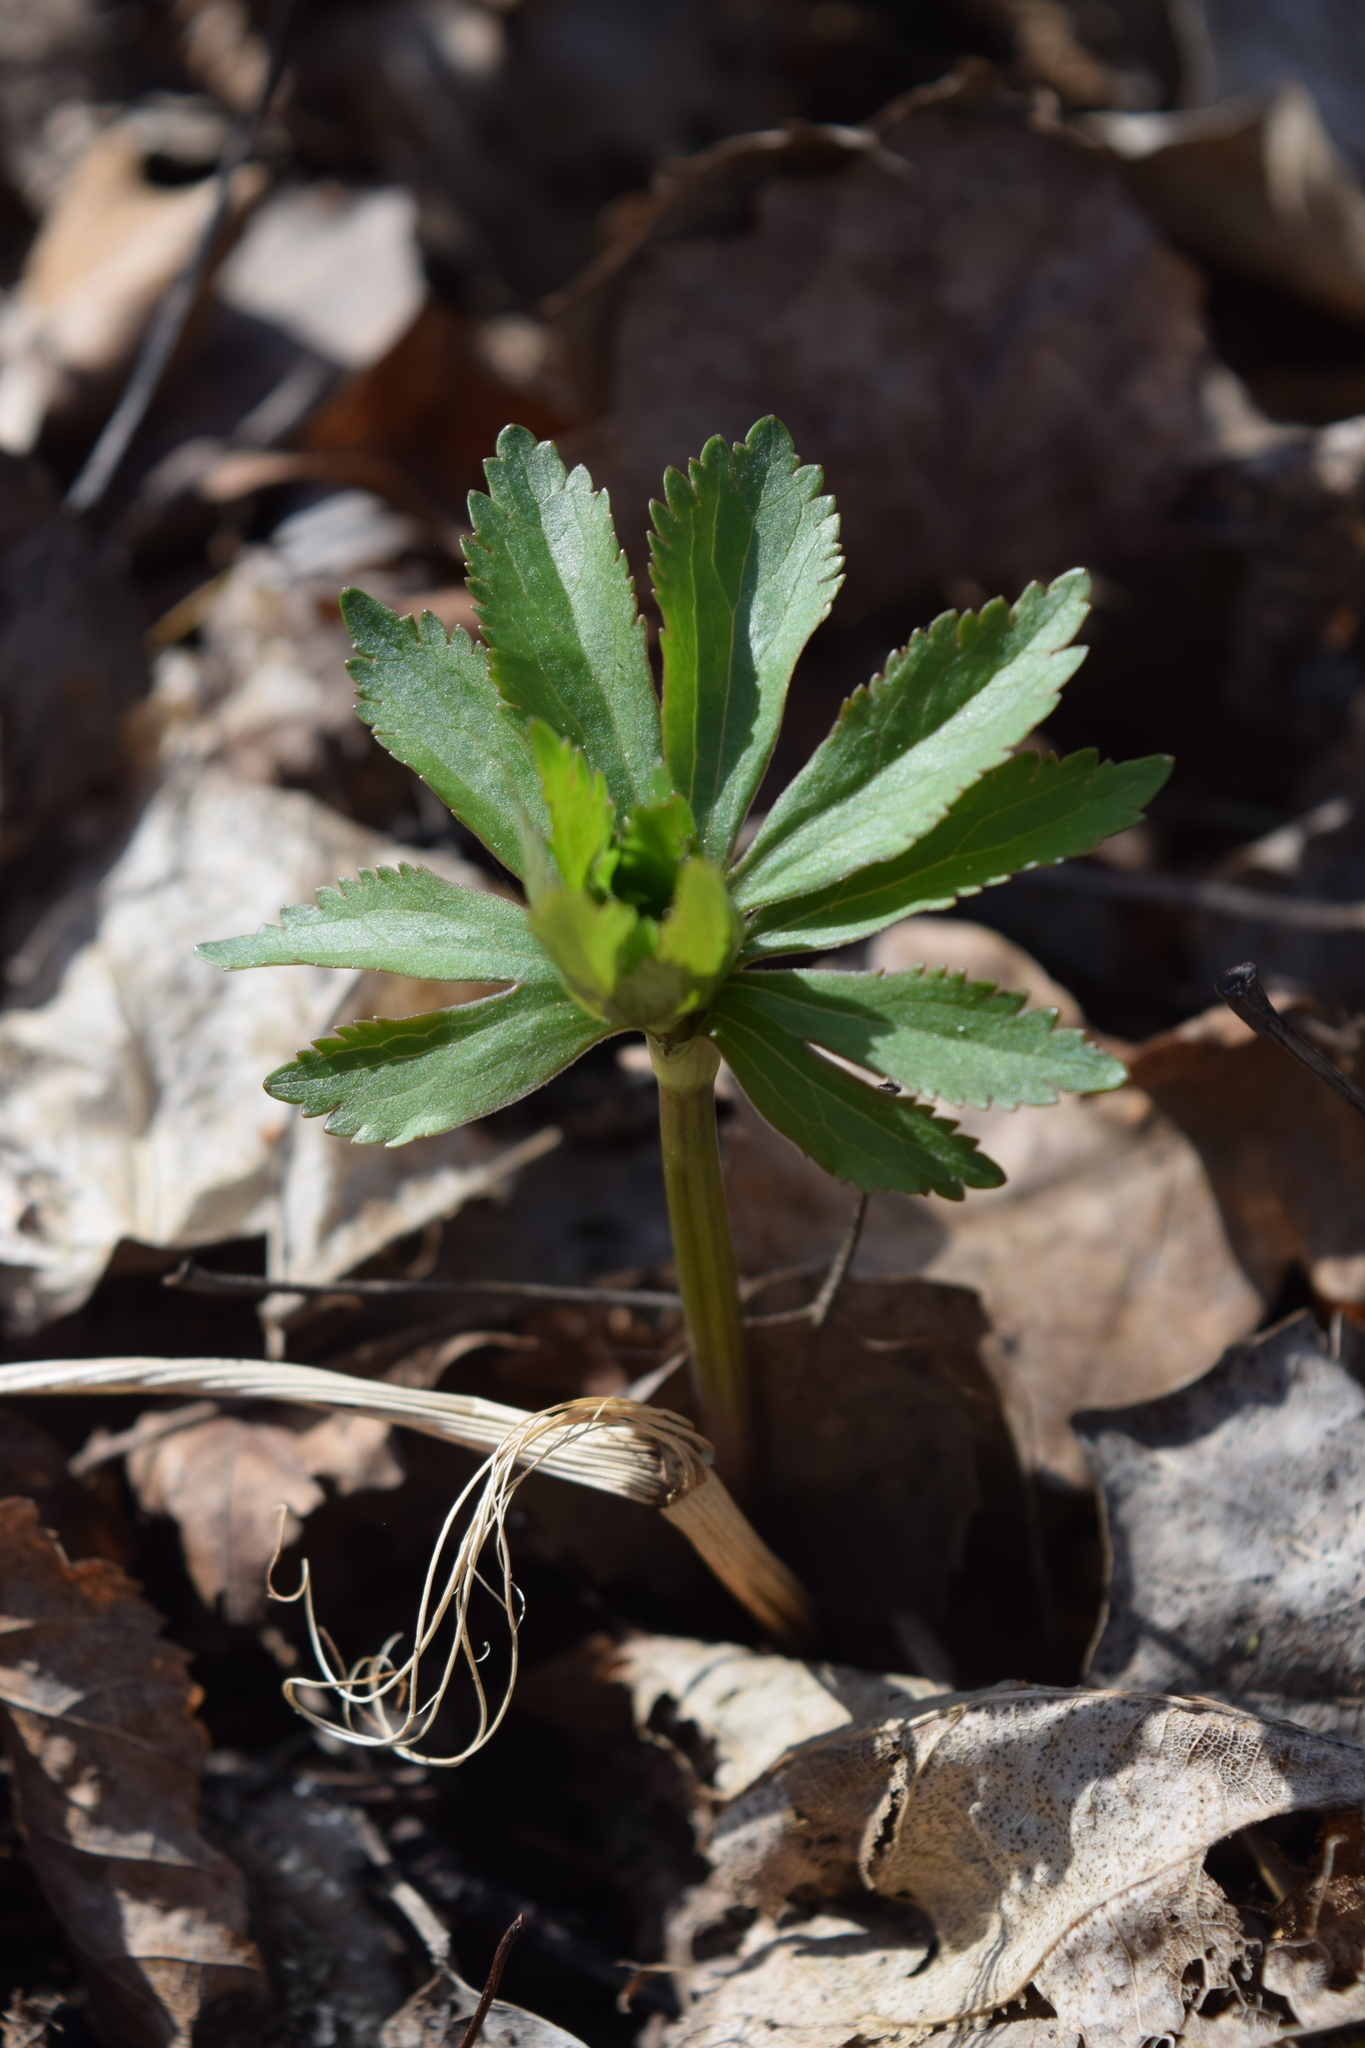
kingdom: Plantae
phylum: Tracheophyta
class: Magnoliopsida
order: Ranunculales
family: Ranunculaceae
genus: Ranunculus
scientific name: Ranunculus cassubicus
